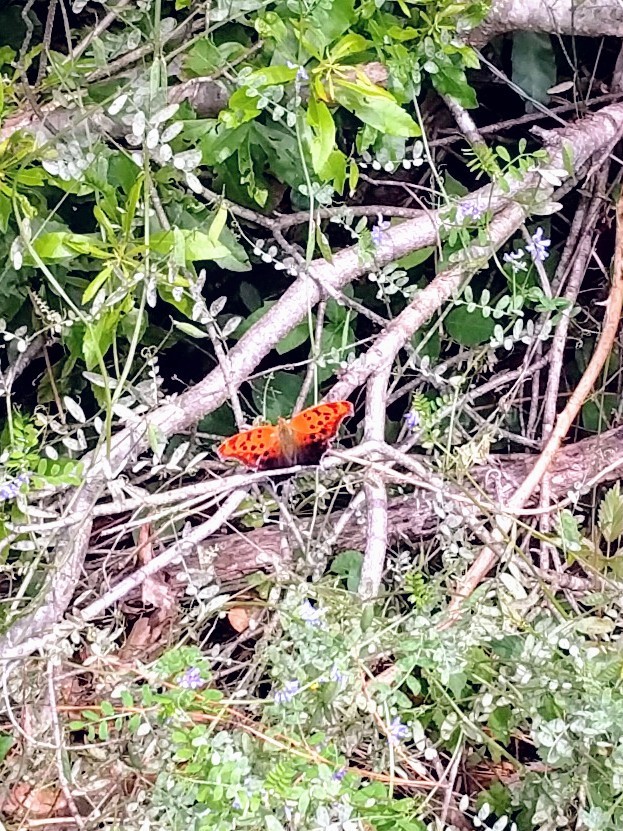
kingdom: Animalia
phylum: Arthropoda
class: Insecta
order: Lepidoptera
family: Nymphalidae
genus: Polygonia
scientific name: Polygonia interrogationis
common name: Question mark
